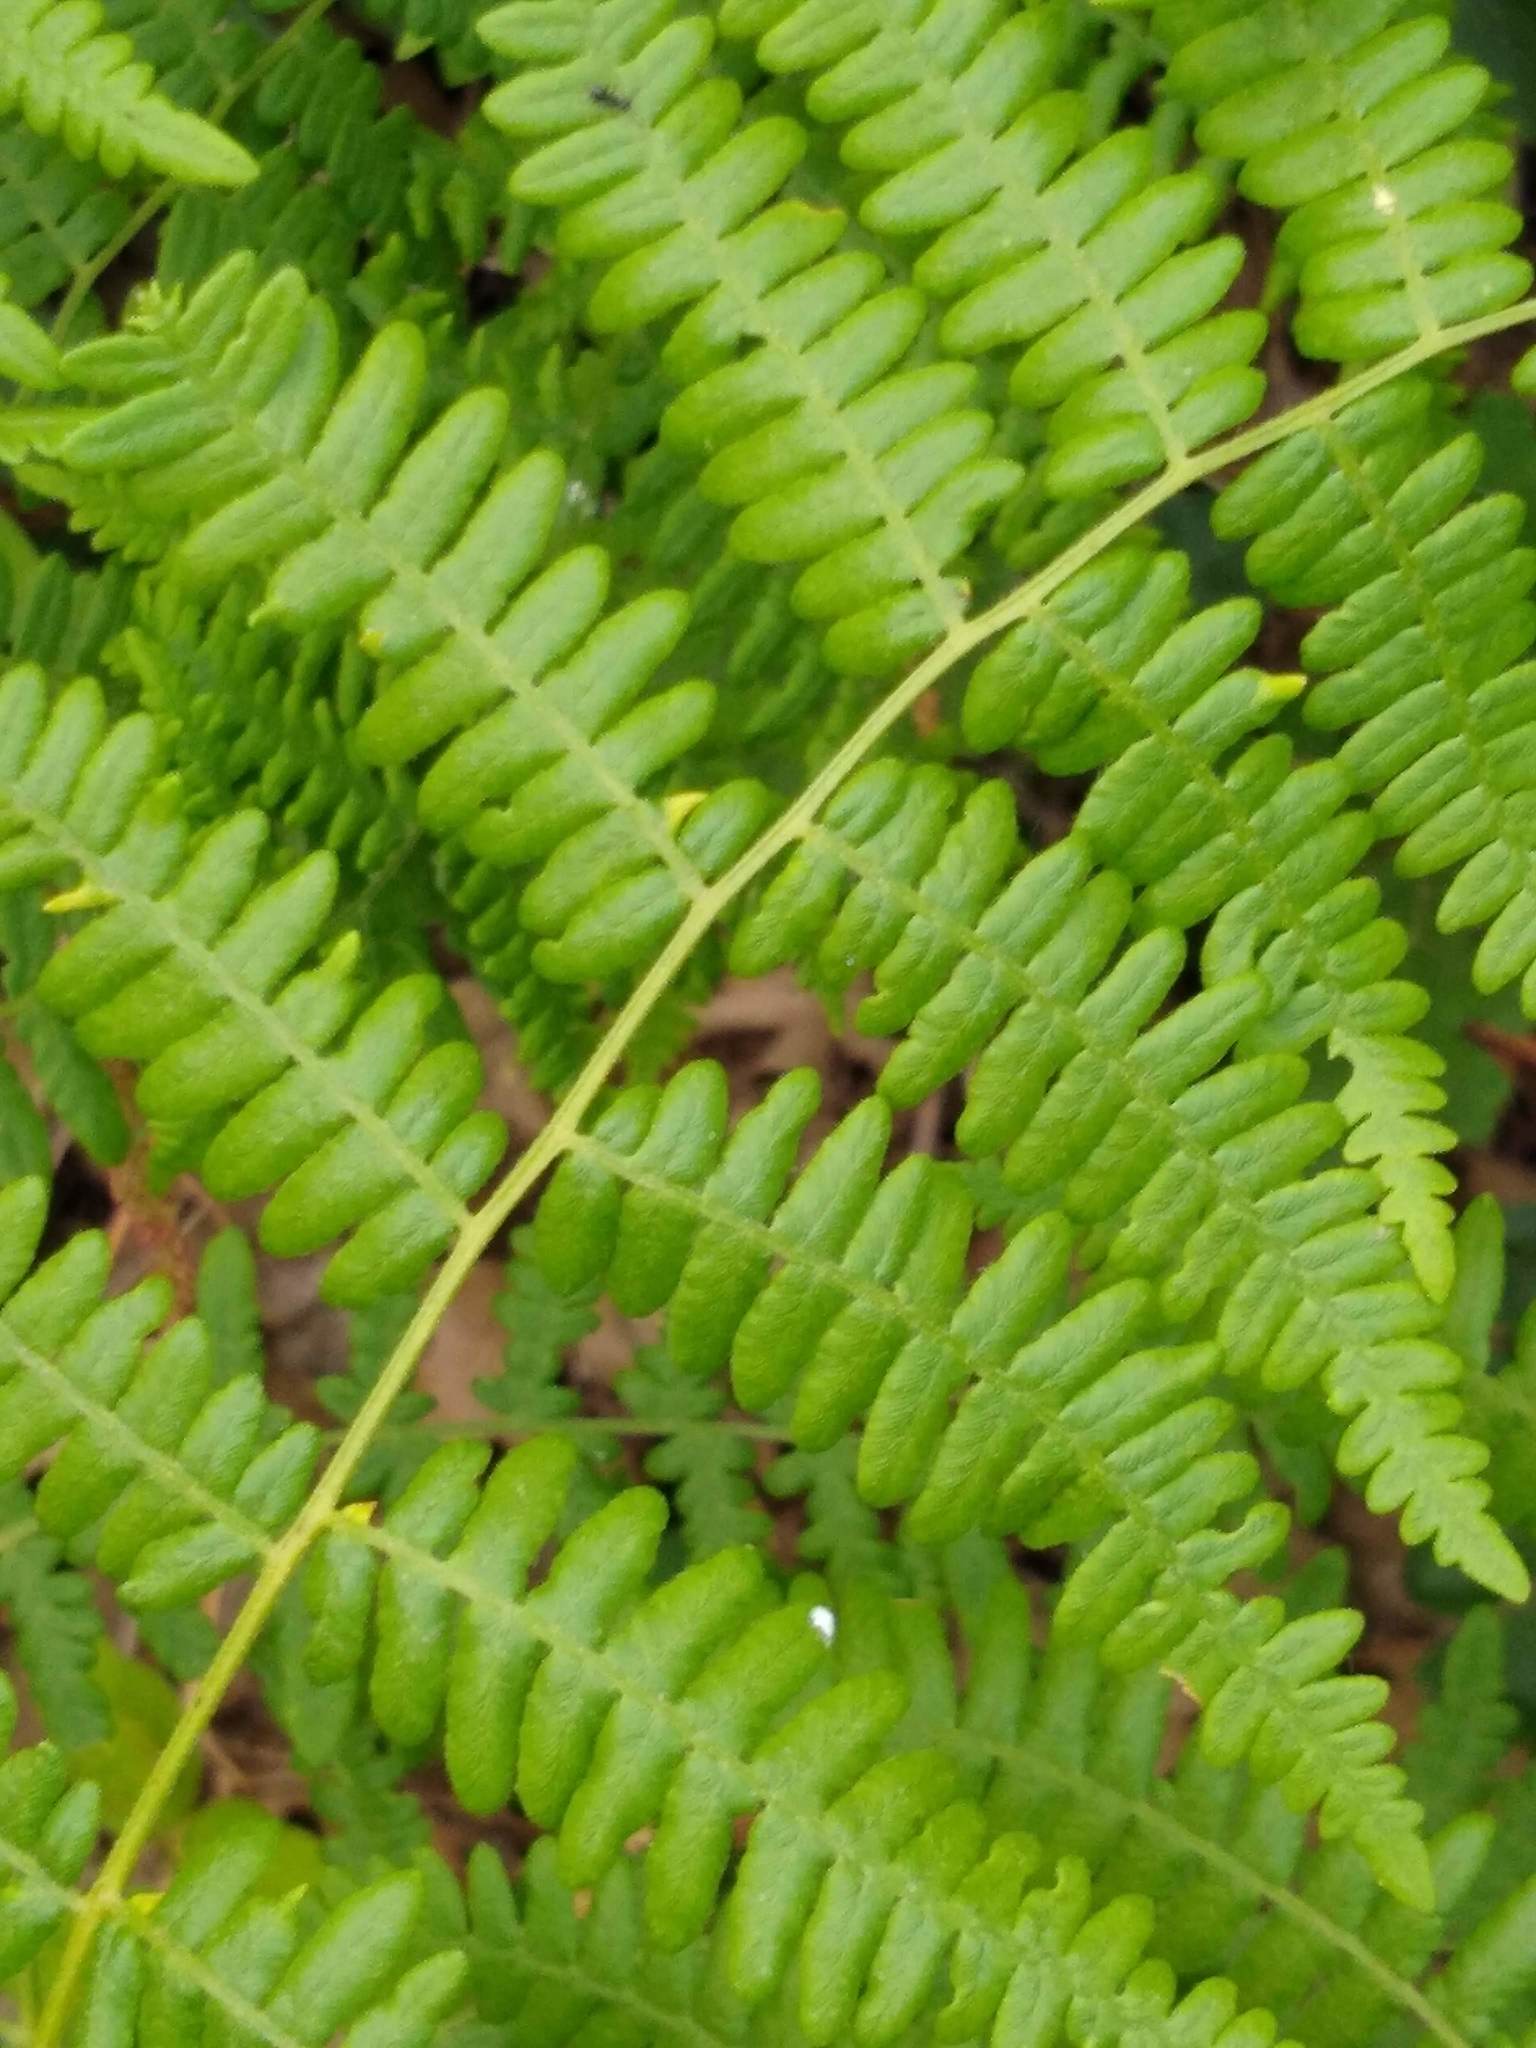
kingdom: Plantae
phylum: Tracheophyta
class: Polypodiopsida
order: Polypodiales
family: Dennstaedtiaceae
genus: Pteridium
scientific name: Pteridium aquilinum
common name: Bracken
